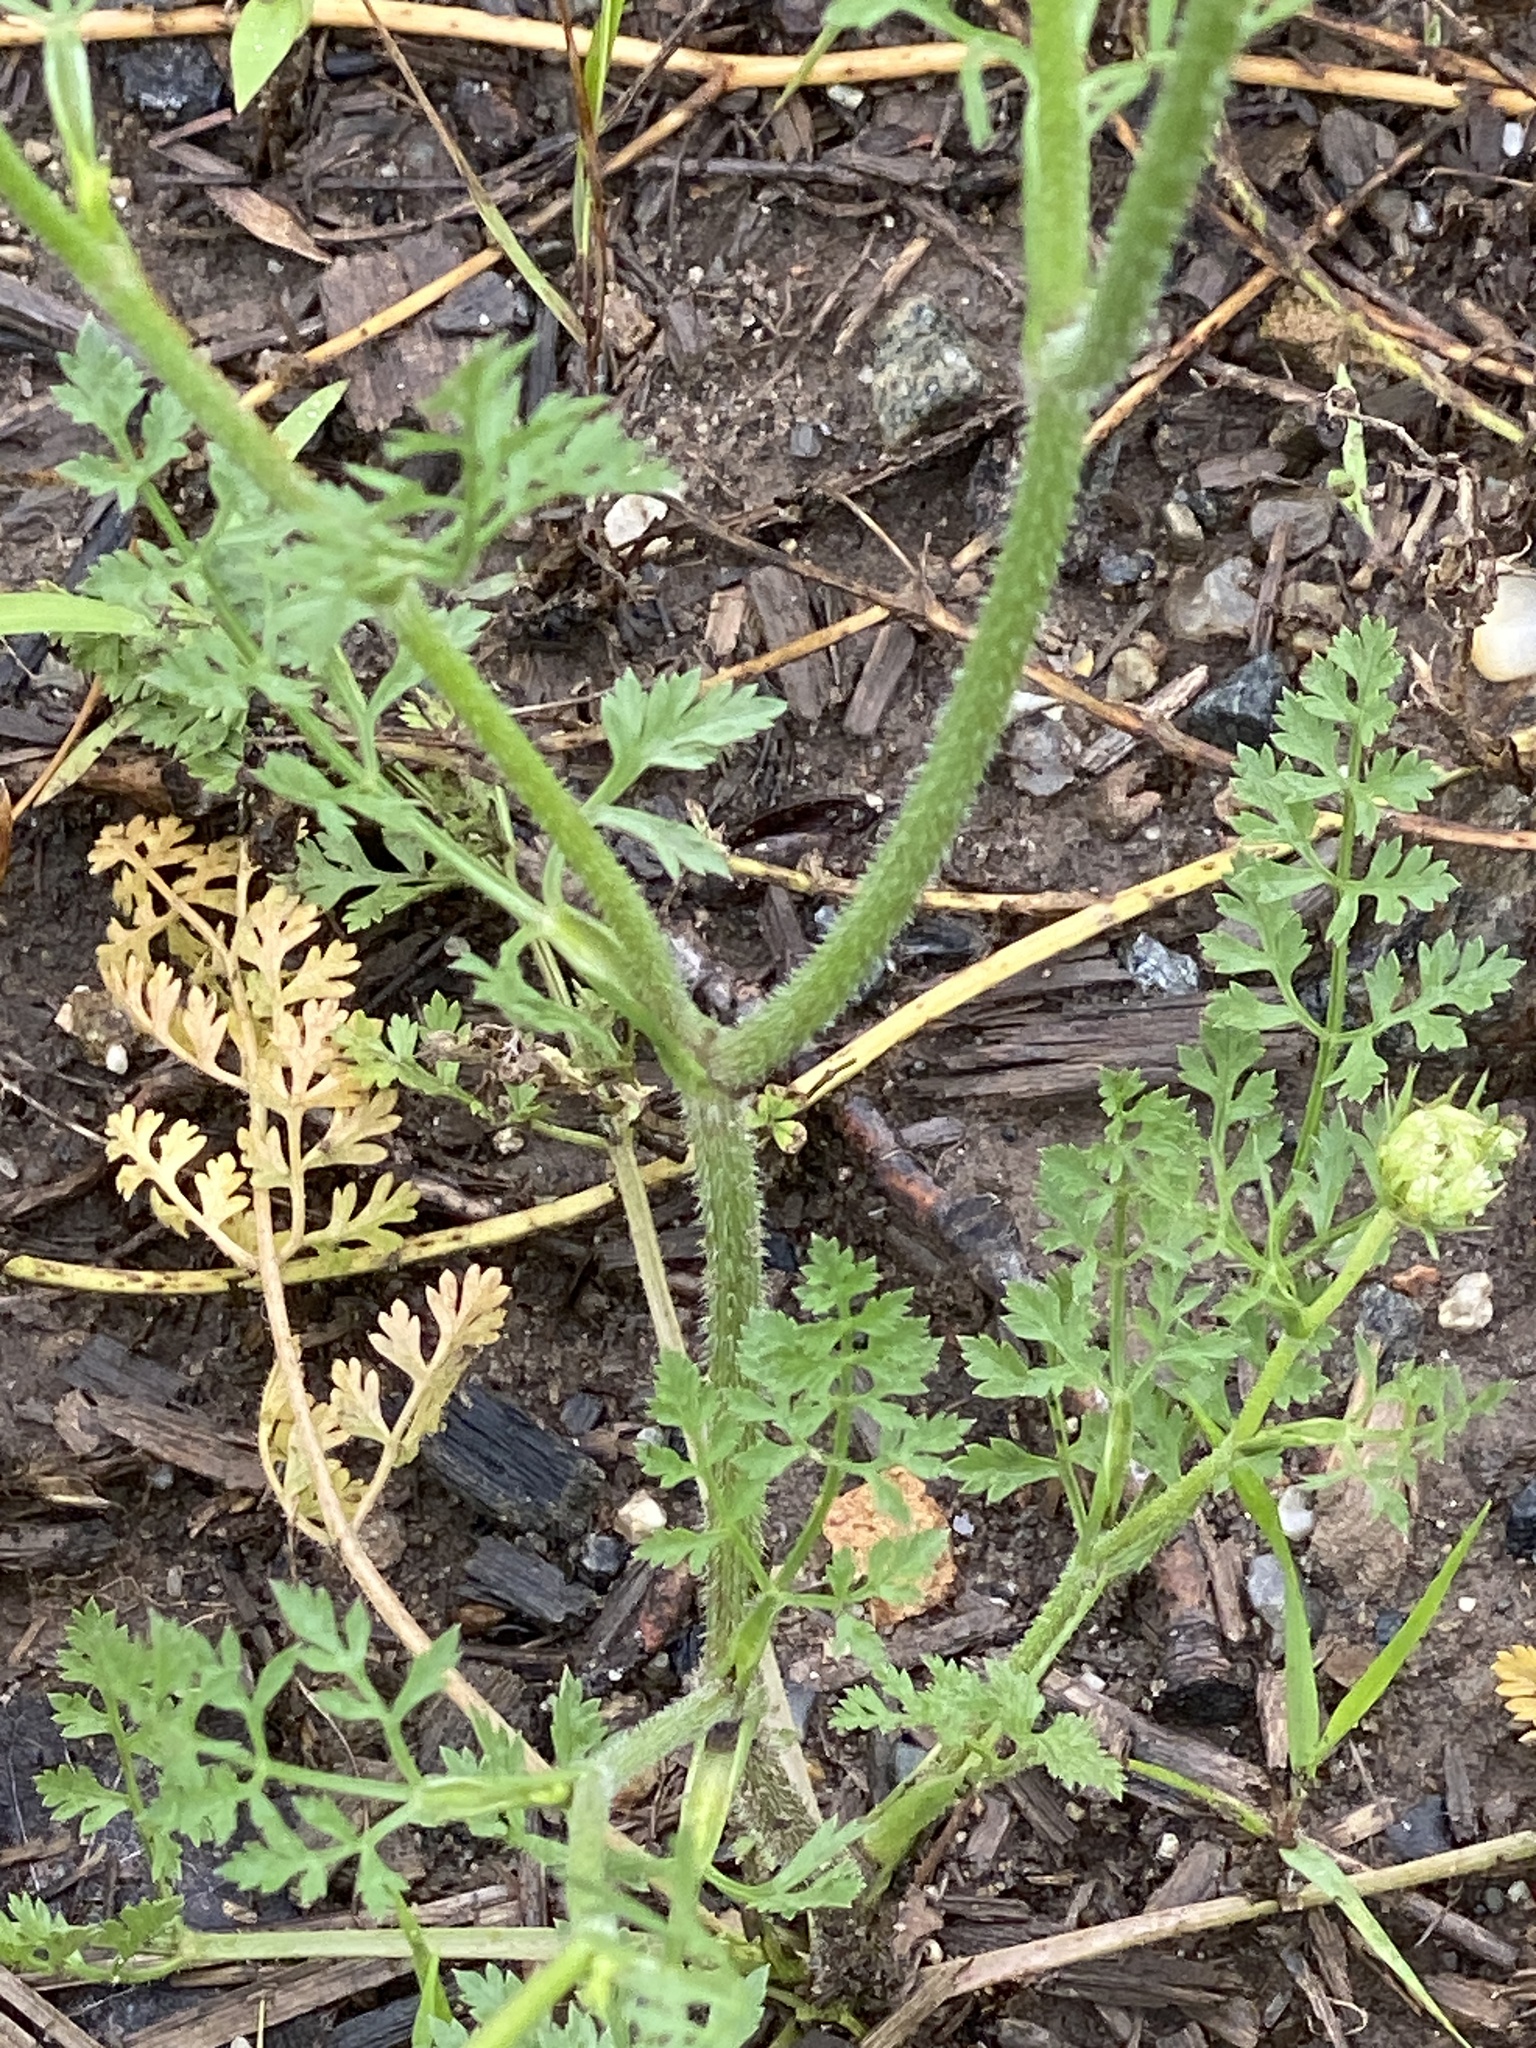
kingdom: Plantae
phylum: Tracheophyta
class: Magnoliopsida
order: Apiales
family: Apiaceae
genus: Daucus
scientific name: Daucus carota
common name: Wild carrot
